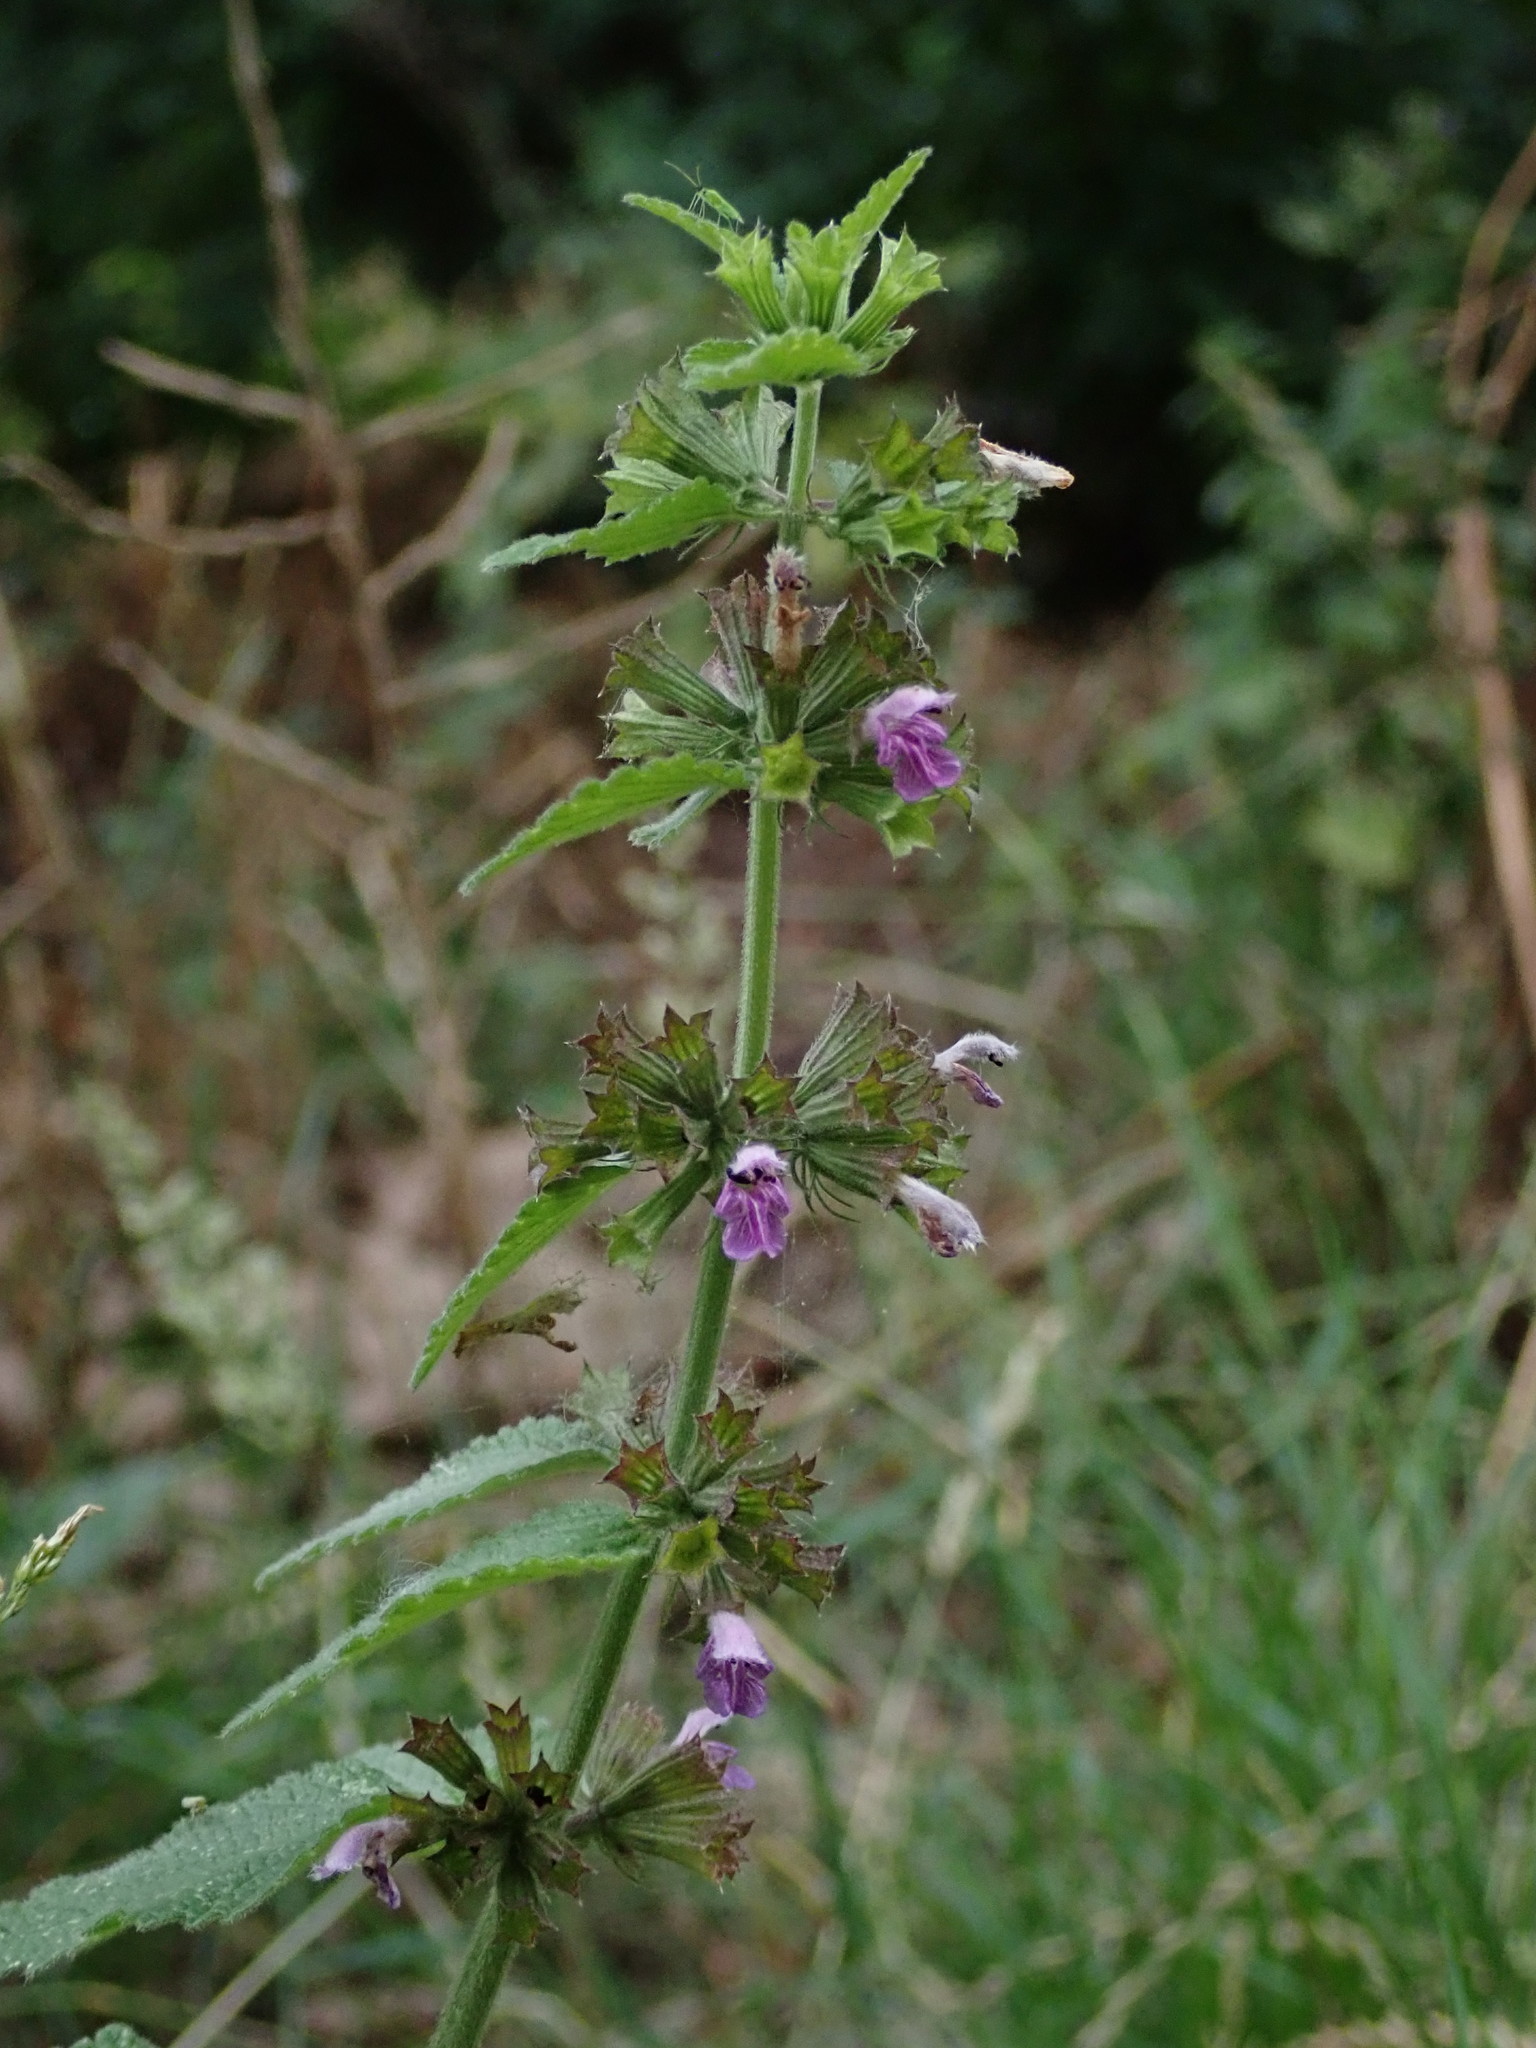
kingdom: Plantae
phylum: Tracheophyta
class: Magnoliopsida
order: Lamiales
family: Lamiaceae
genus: Ballota
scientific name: Ballota nigra
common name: Black horehound
